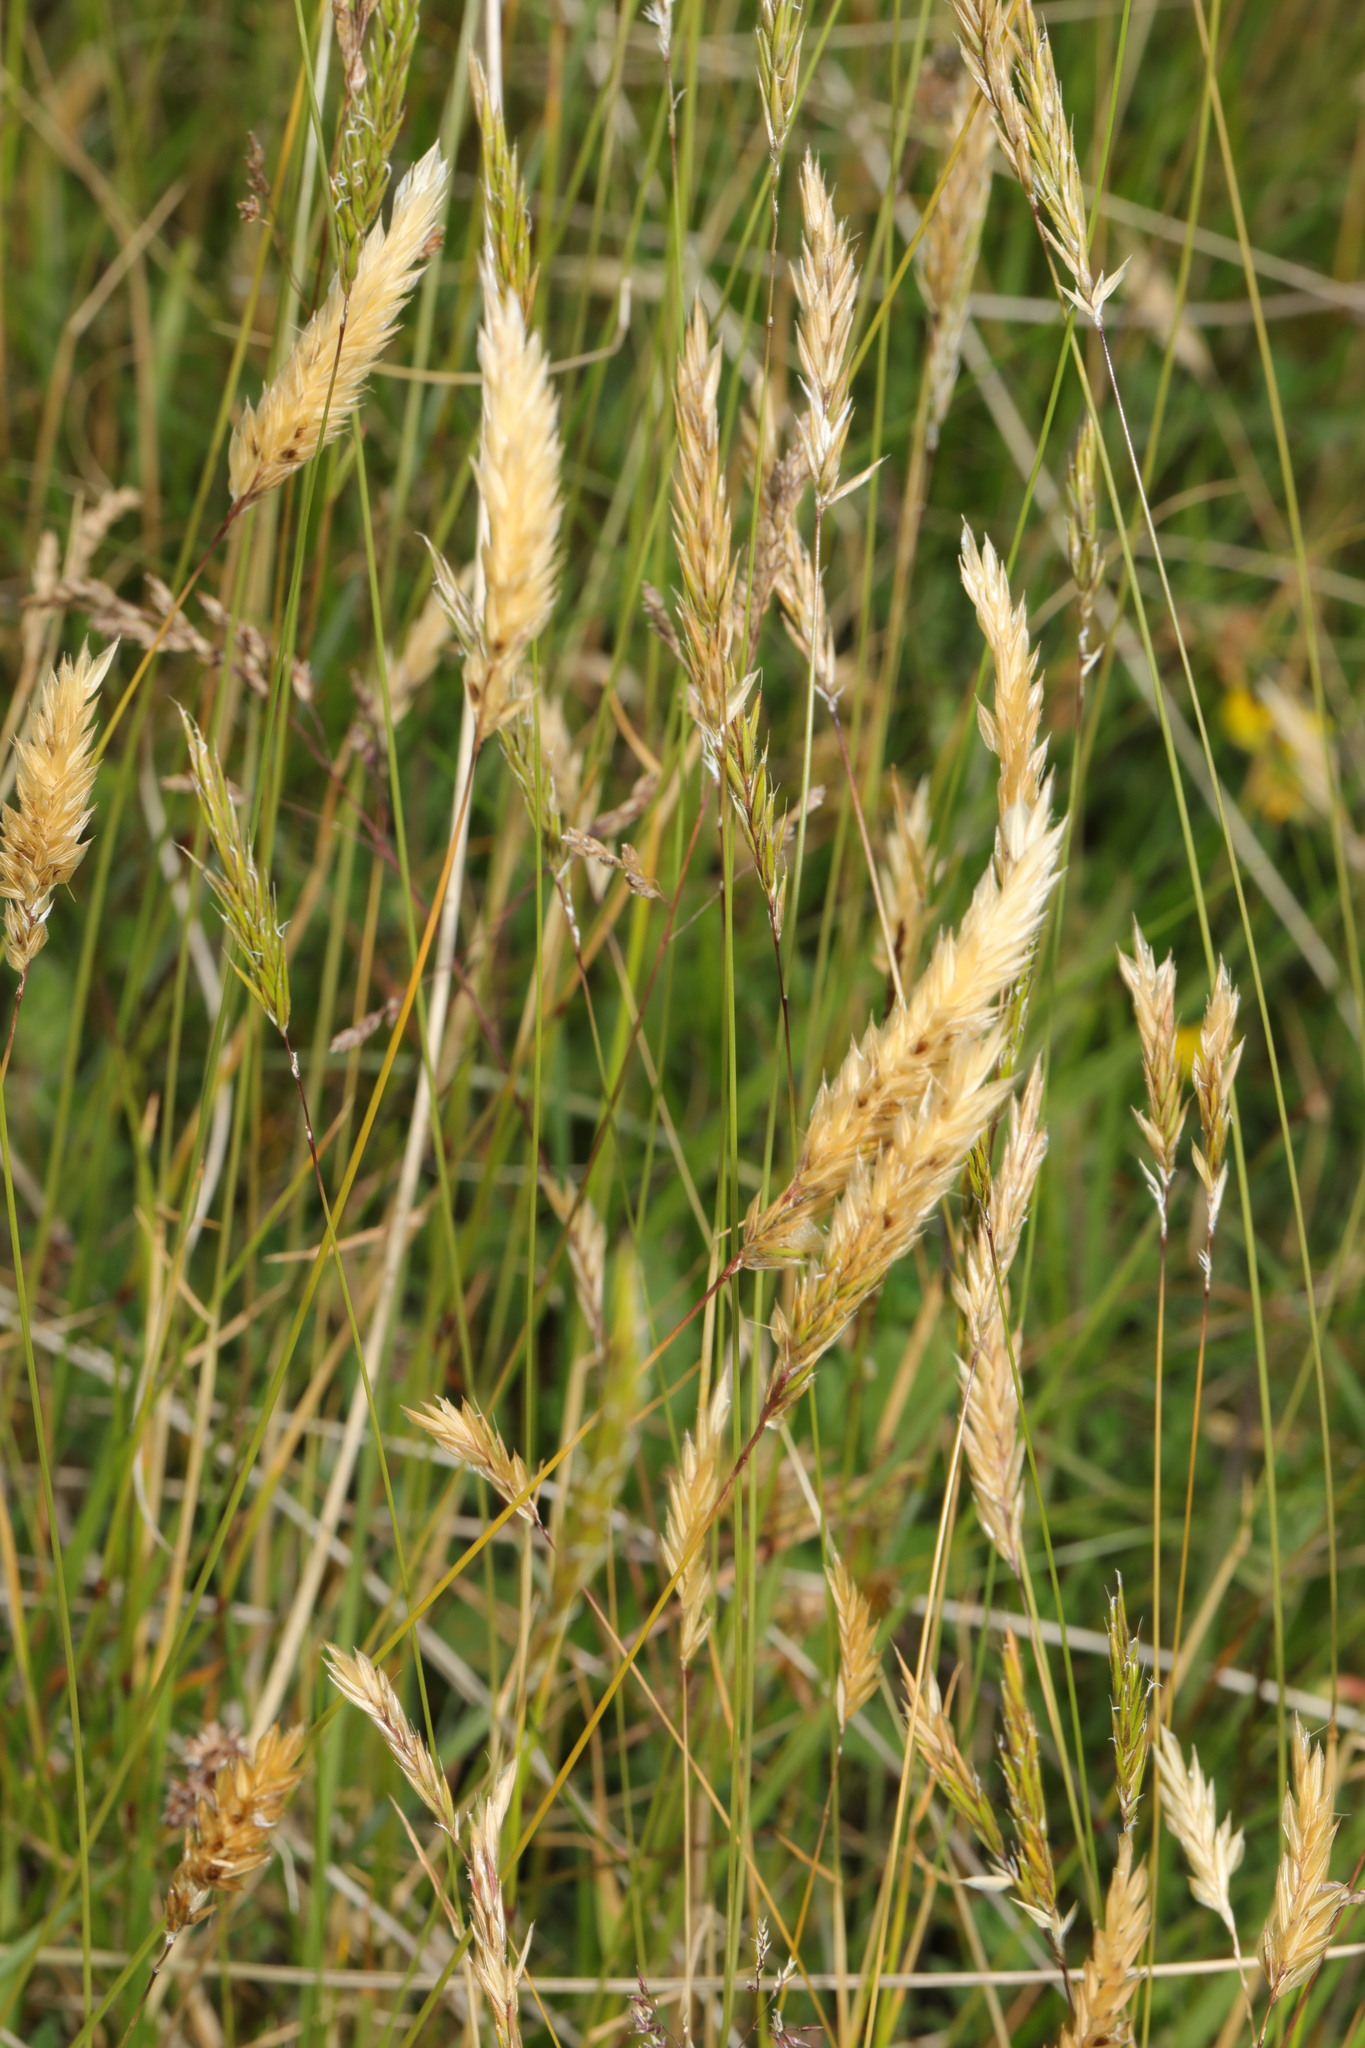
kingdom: Plantae
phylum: Tracheophyta
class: Liliopsida
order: Poales
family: Poaceae
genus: Anthoxanthum
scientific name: Anthoxanthum odoratum
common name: Sweet vernalgrass
